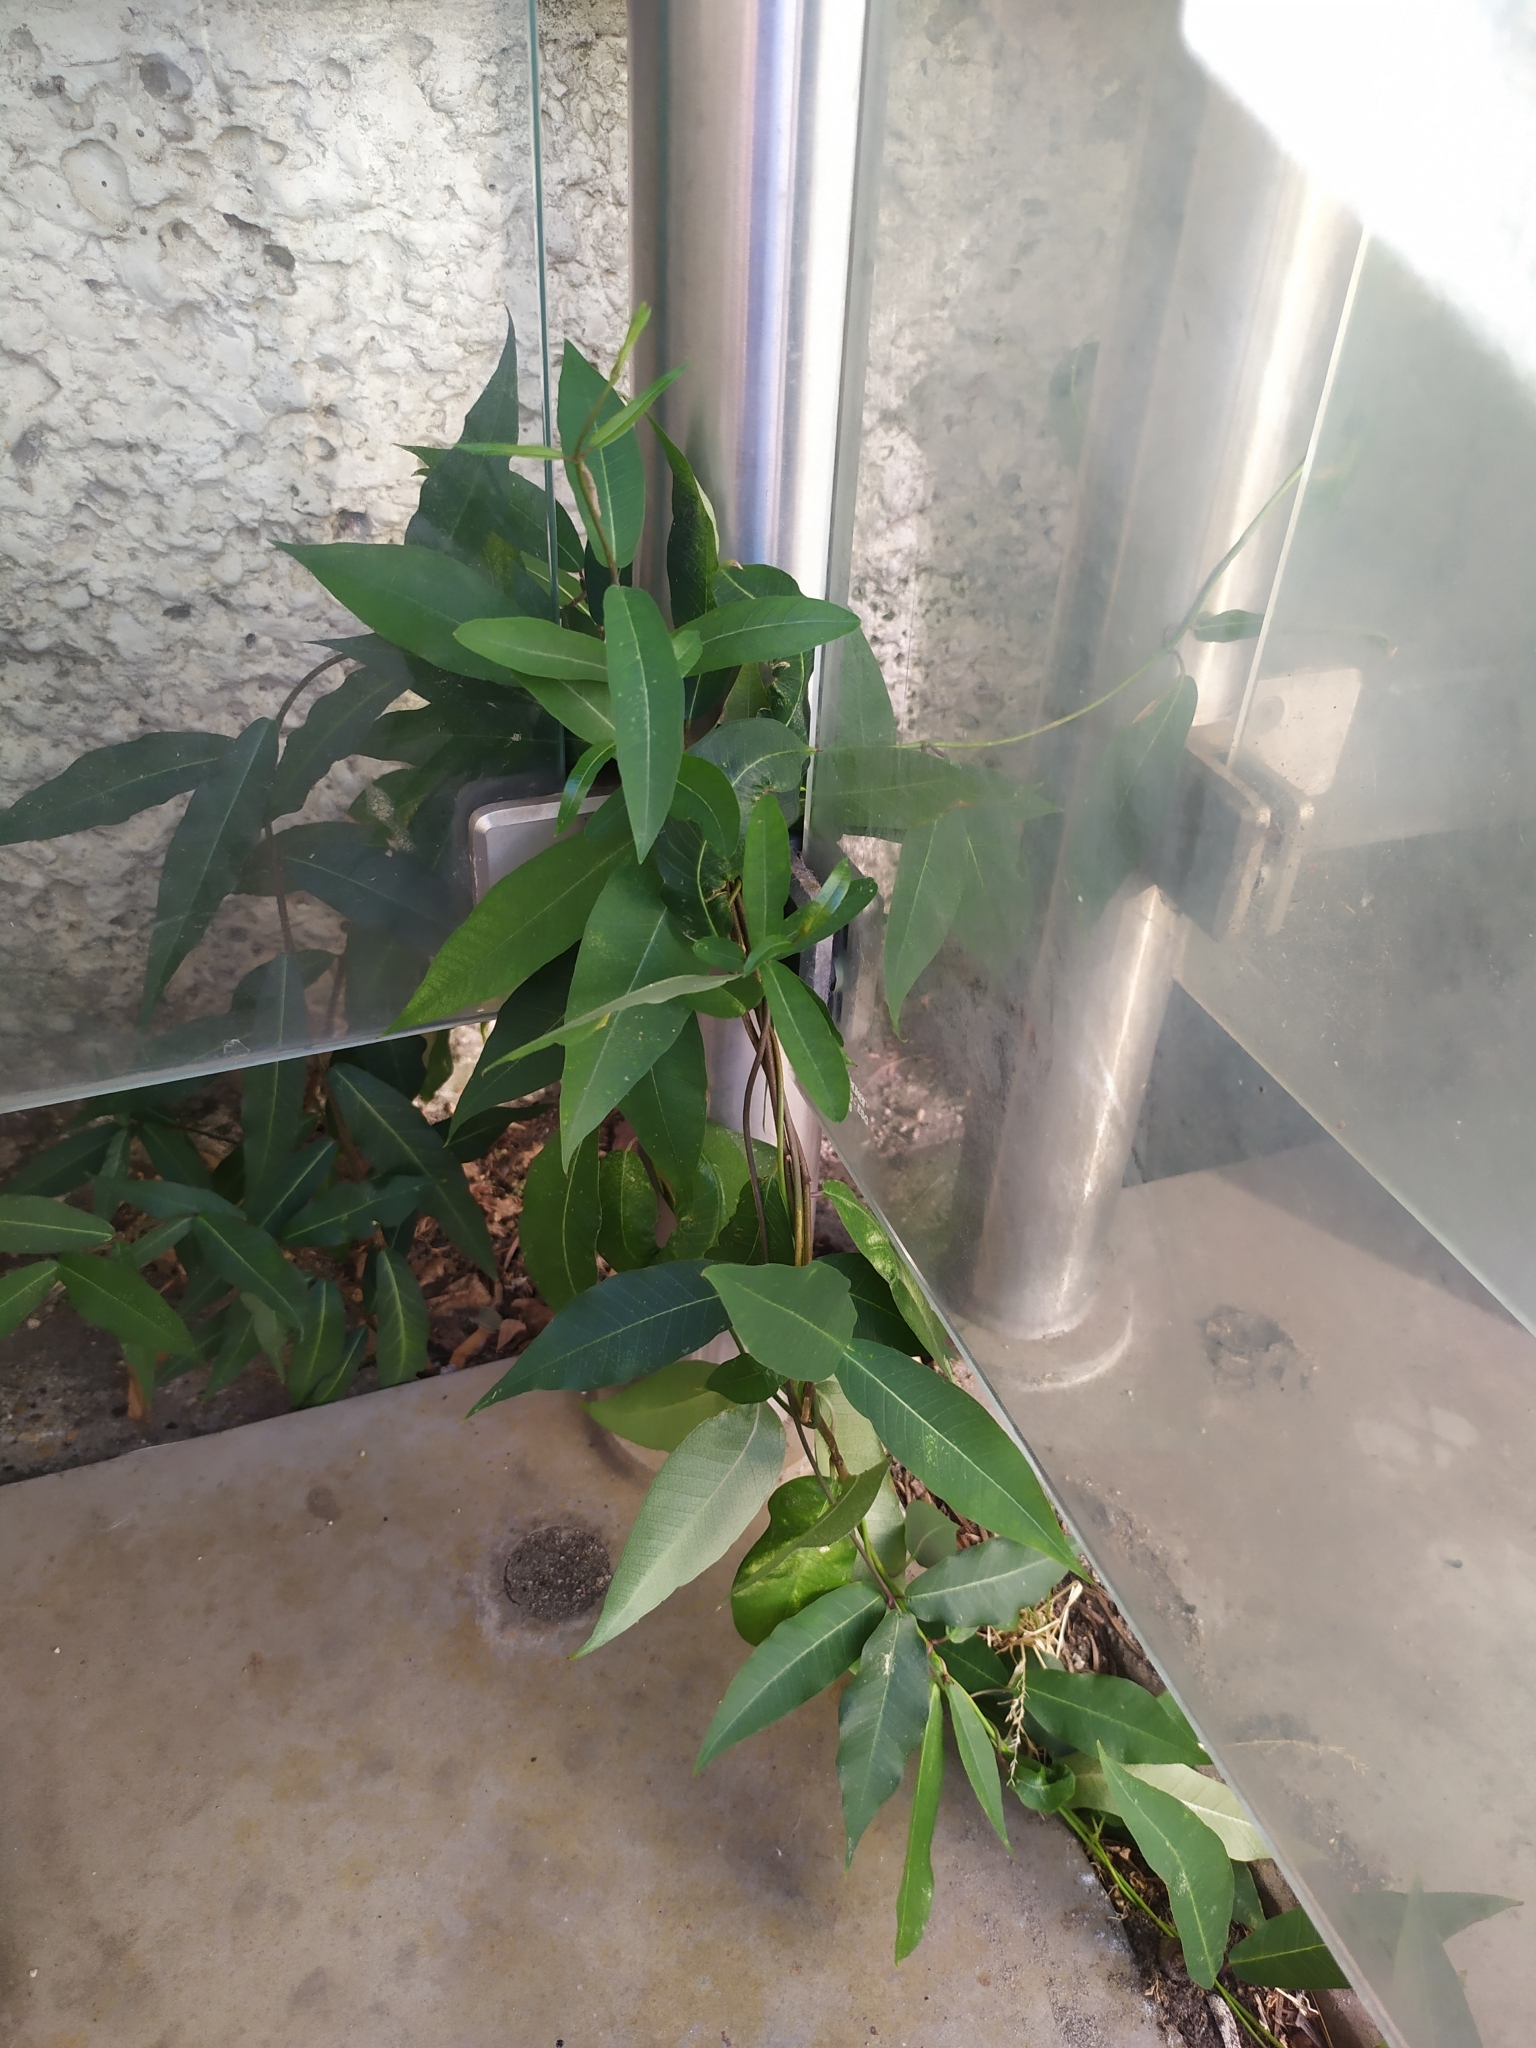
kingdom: Plantae
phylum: Tracheophyta
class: Magnoliopsida
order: Gentianales
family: Apocynaceae
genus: Periploca
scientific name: Periploca graeca
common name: Silkvine
